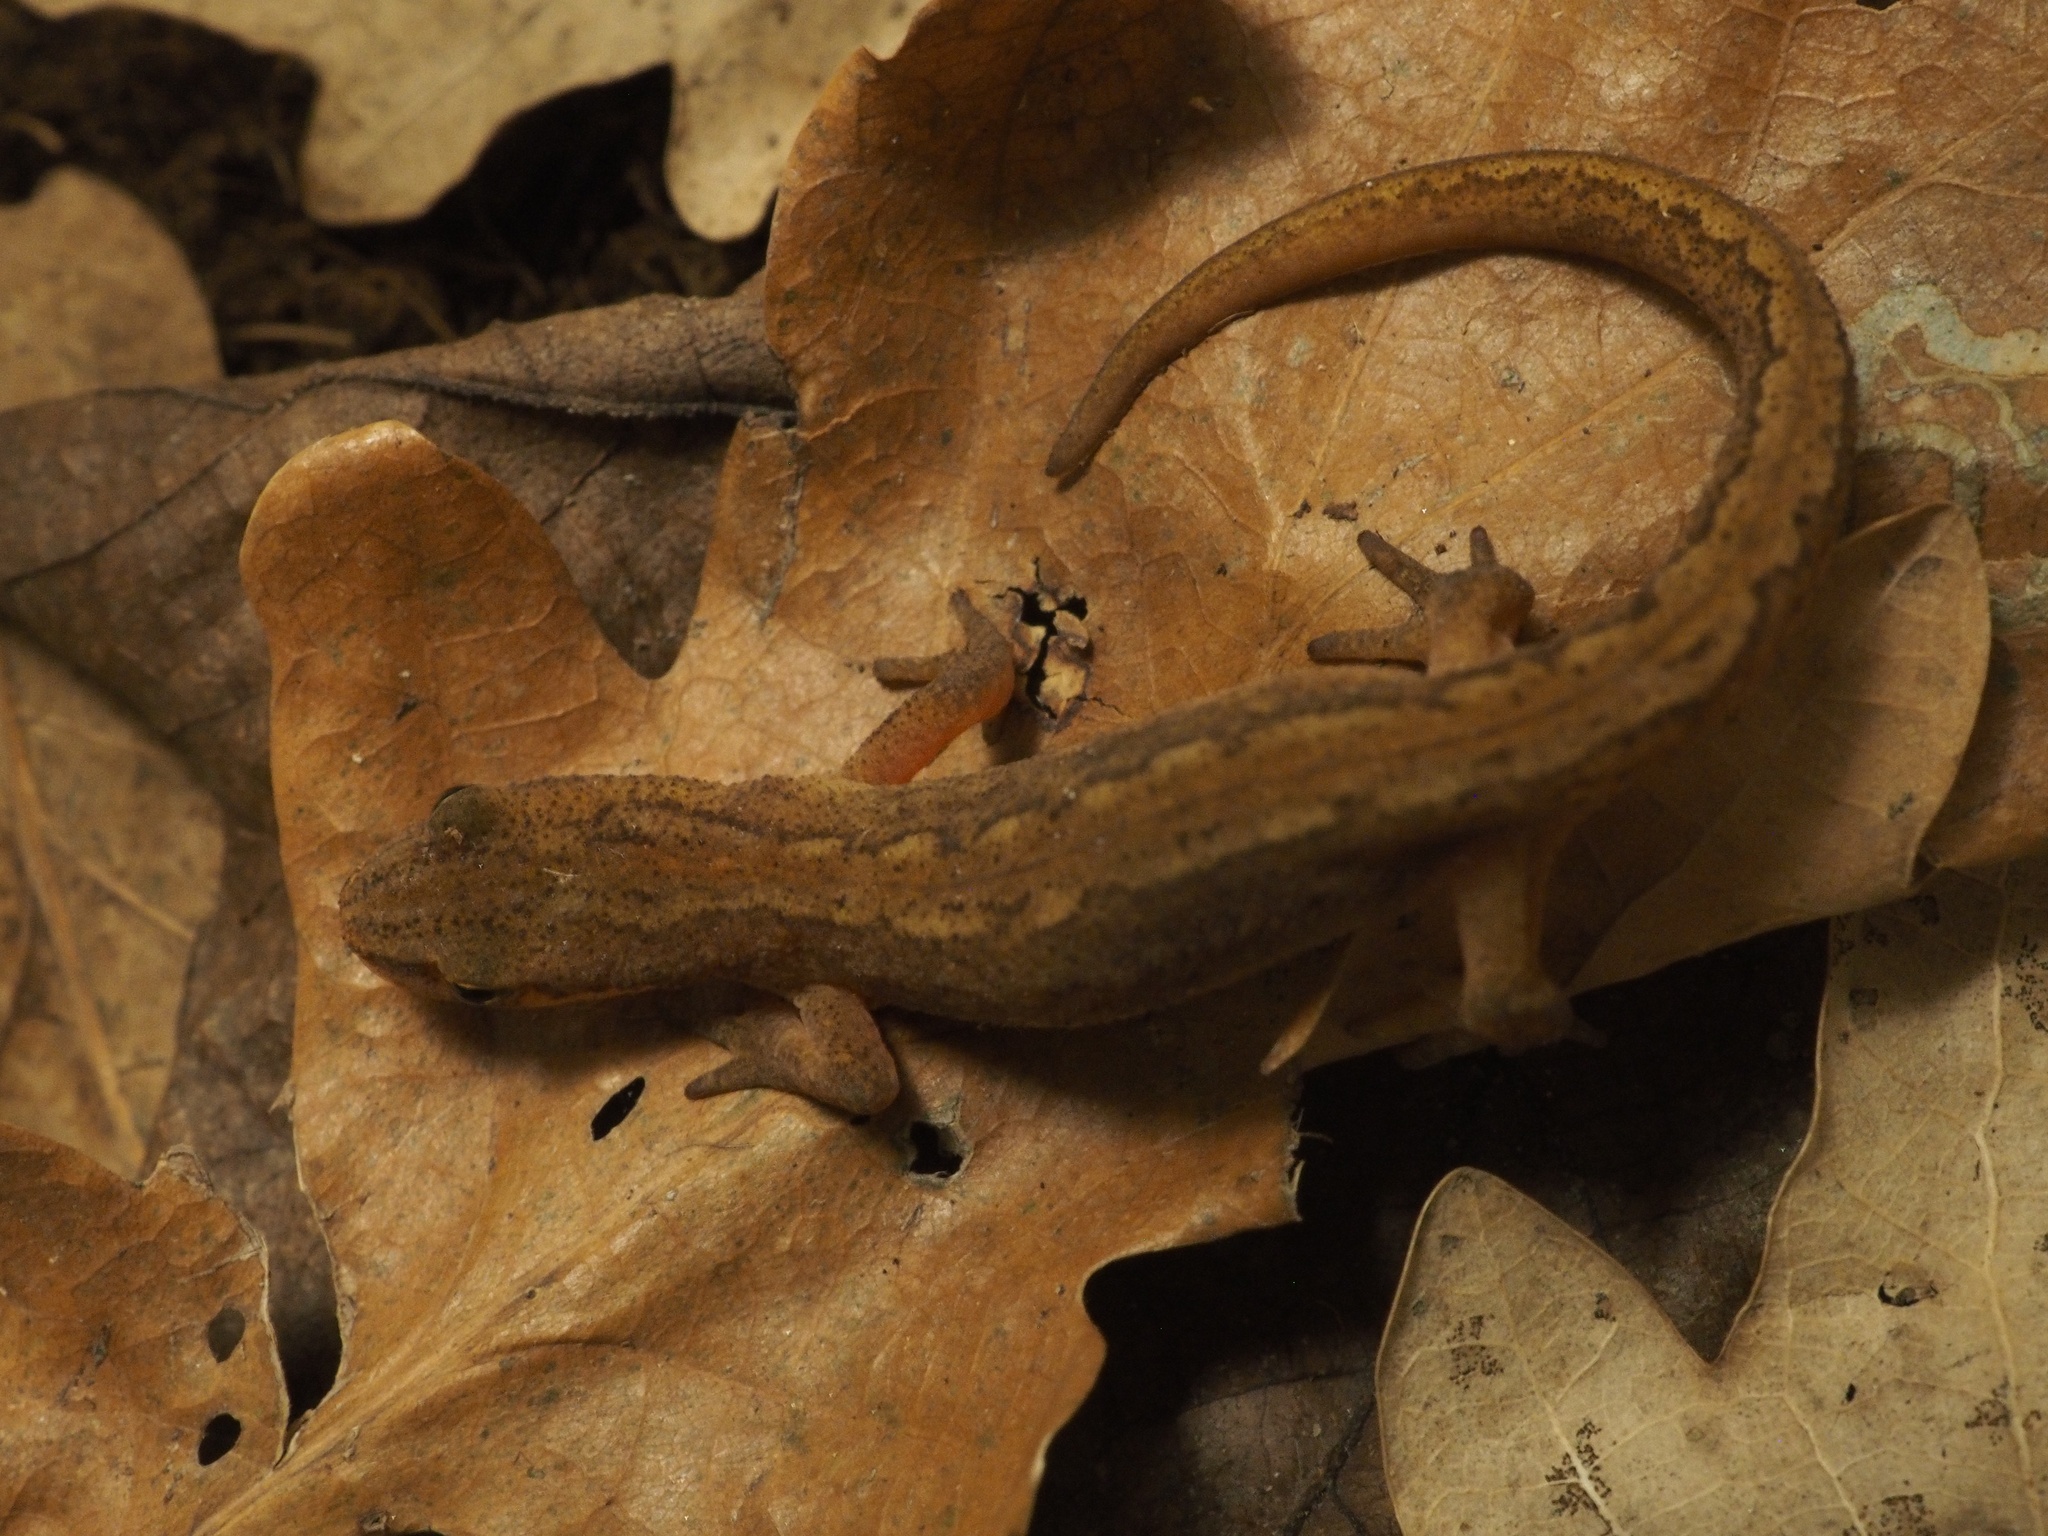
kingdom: Animalia
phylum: Chordata
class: Amphibia
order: Caudata
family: Salamandridae
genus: Lissotriton
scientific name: Lissotriton vulgaris
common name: Smooth newt
